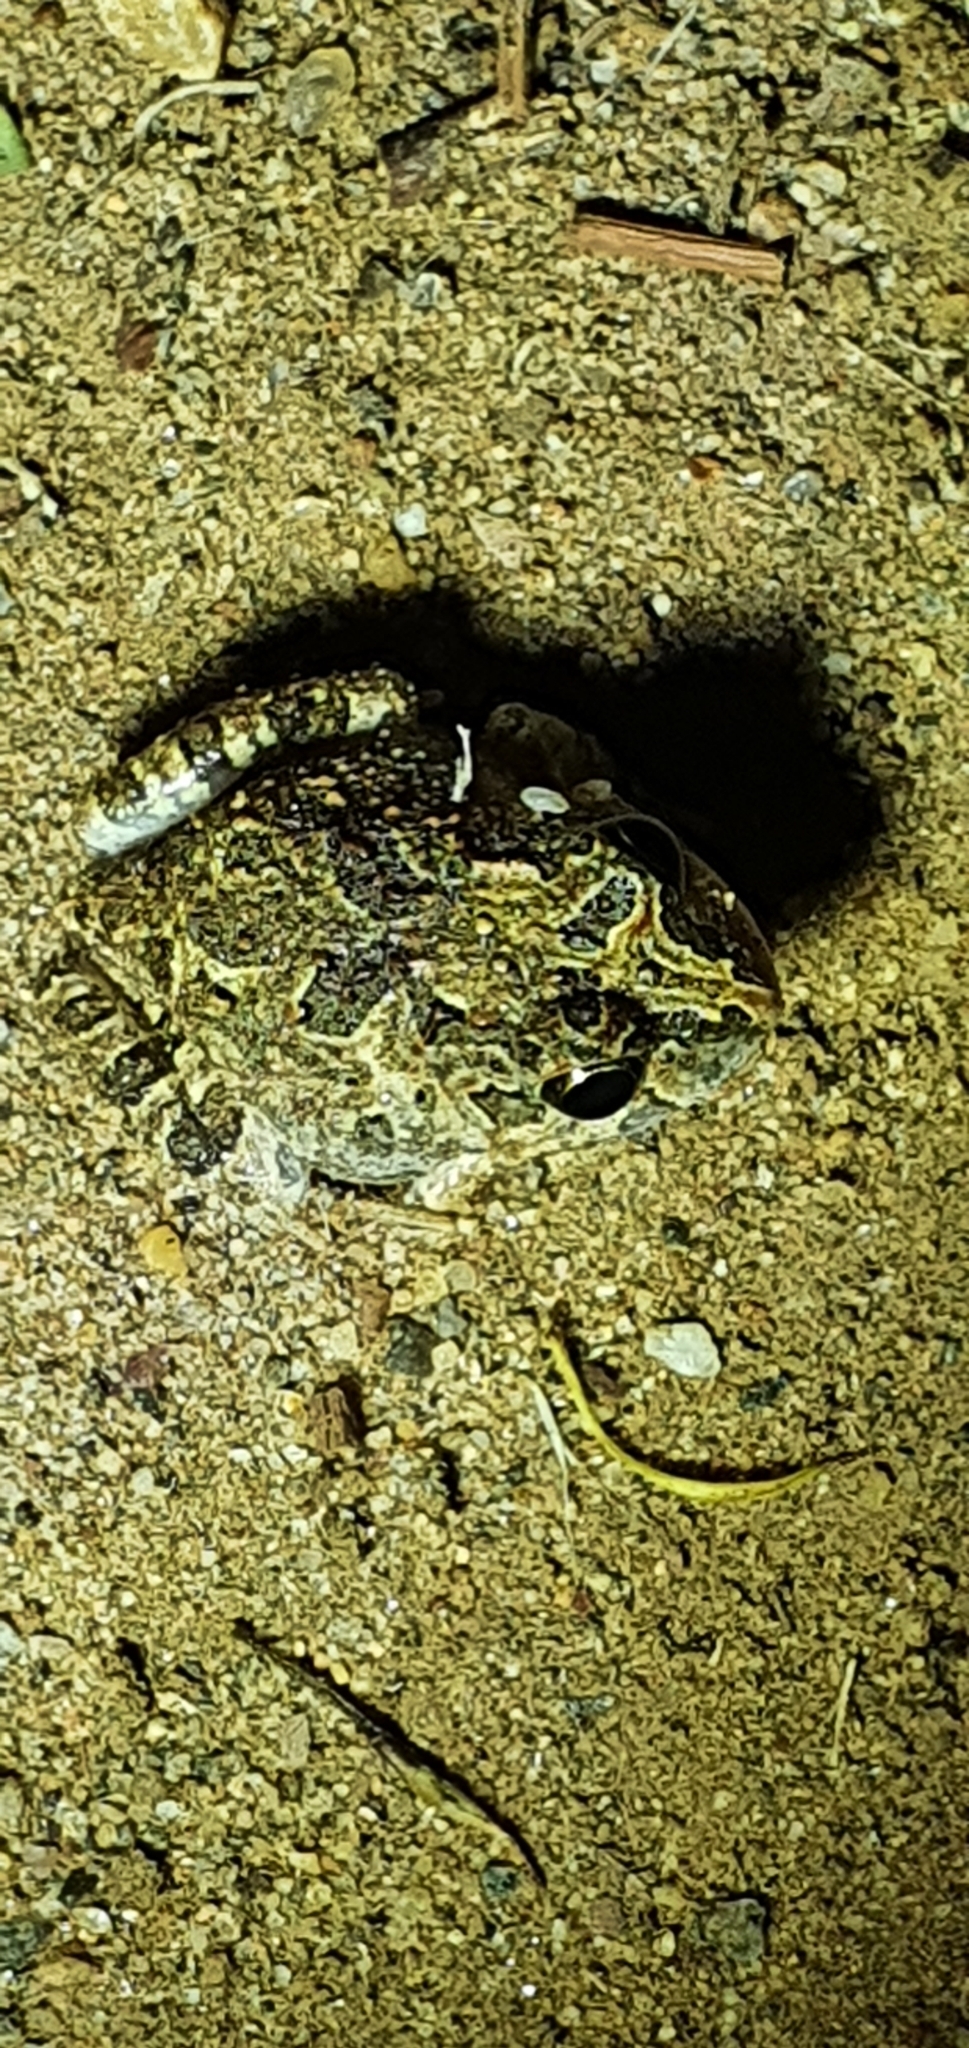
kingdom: Animalia
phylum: Chordata
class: Amphibia
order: Anura
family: Limnodynastidae
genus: Platyplectrum
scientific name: Platyplectrum ornatum
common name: Ornate burrowing frog
